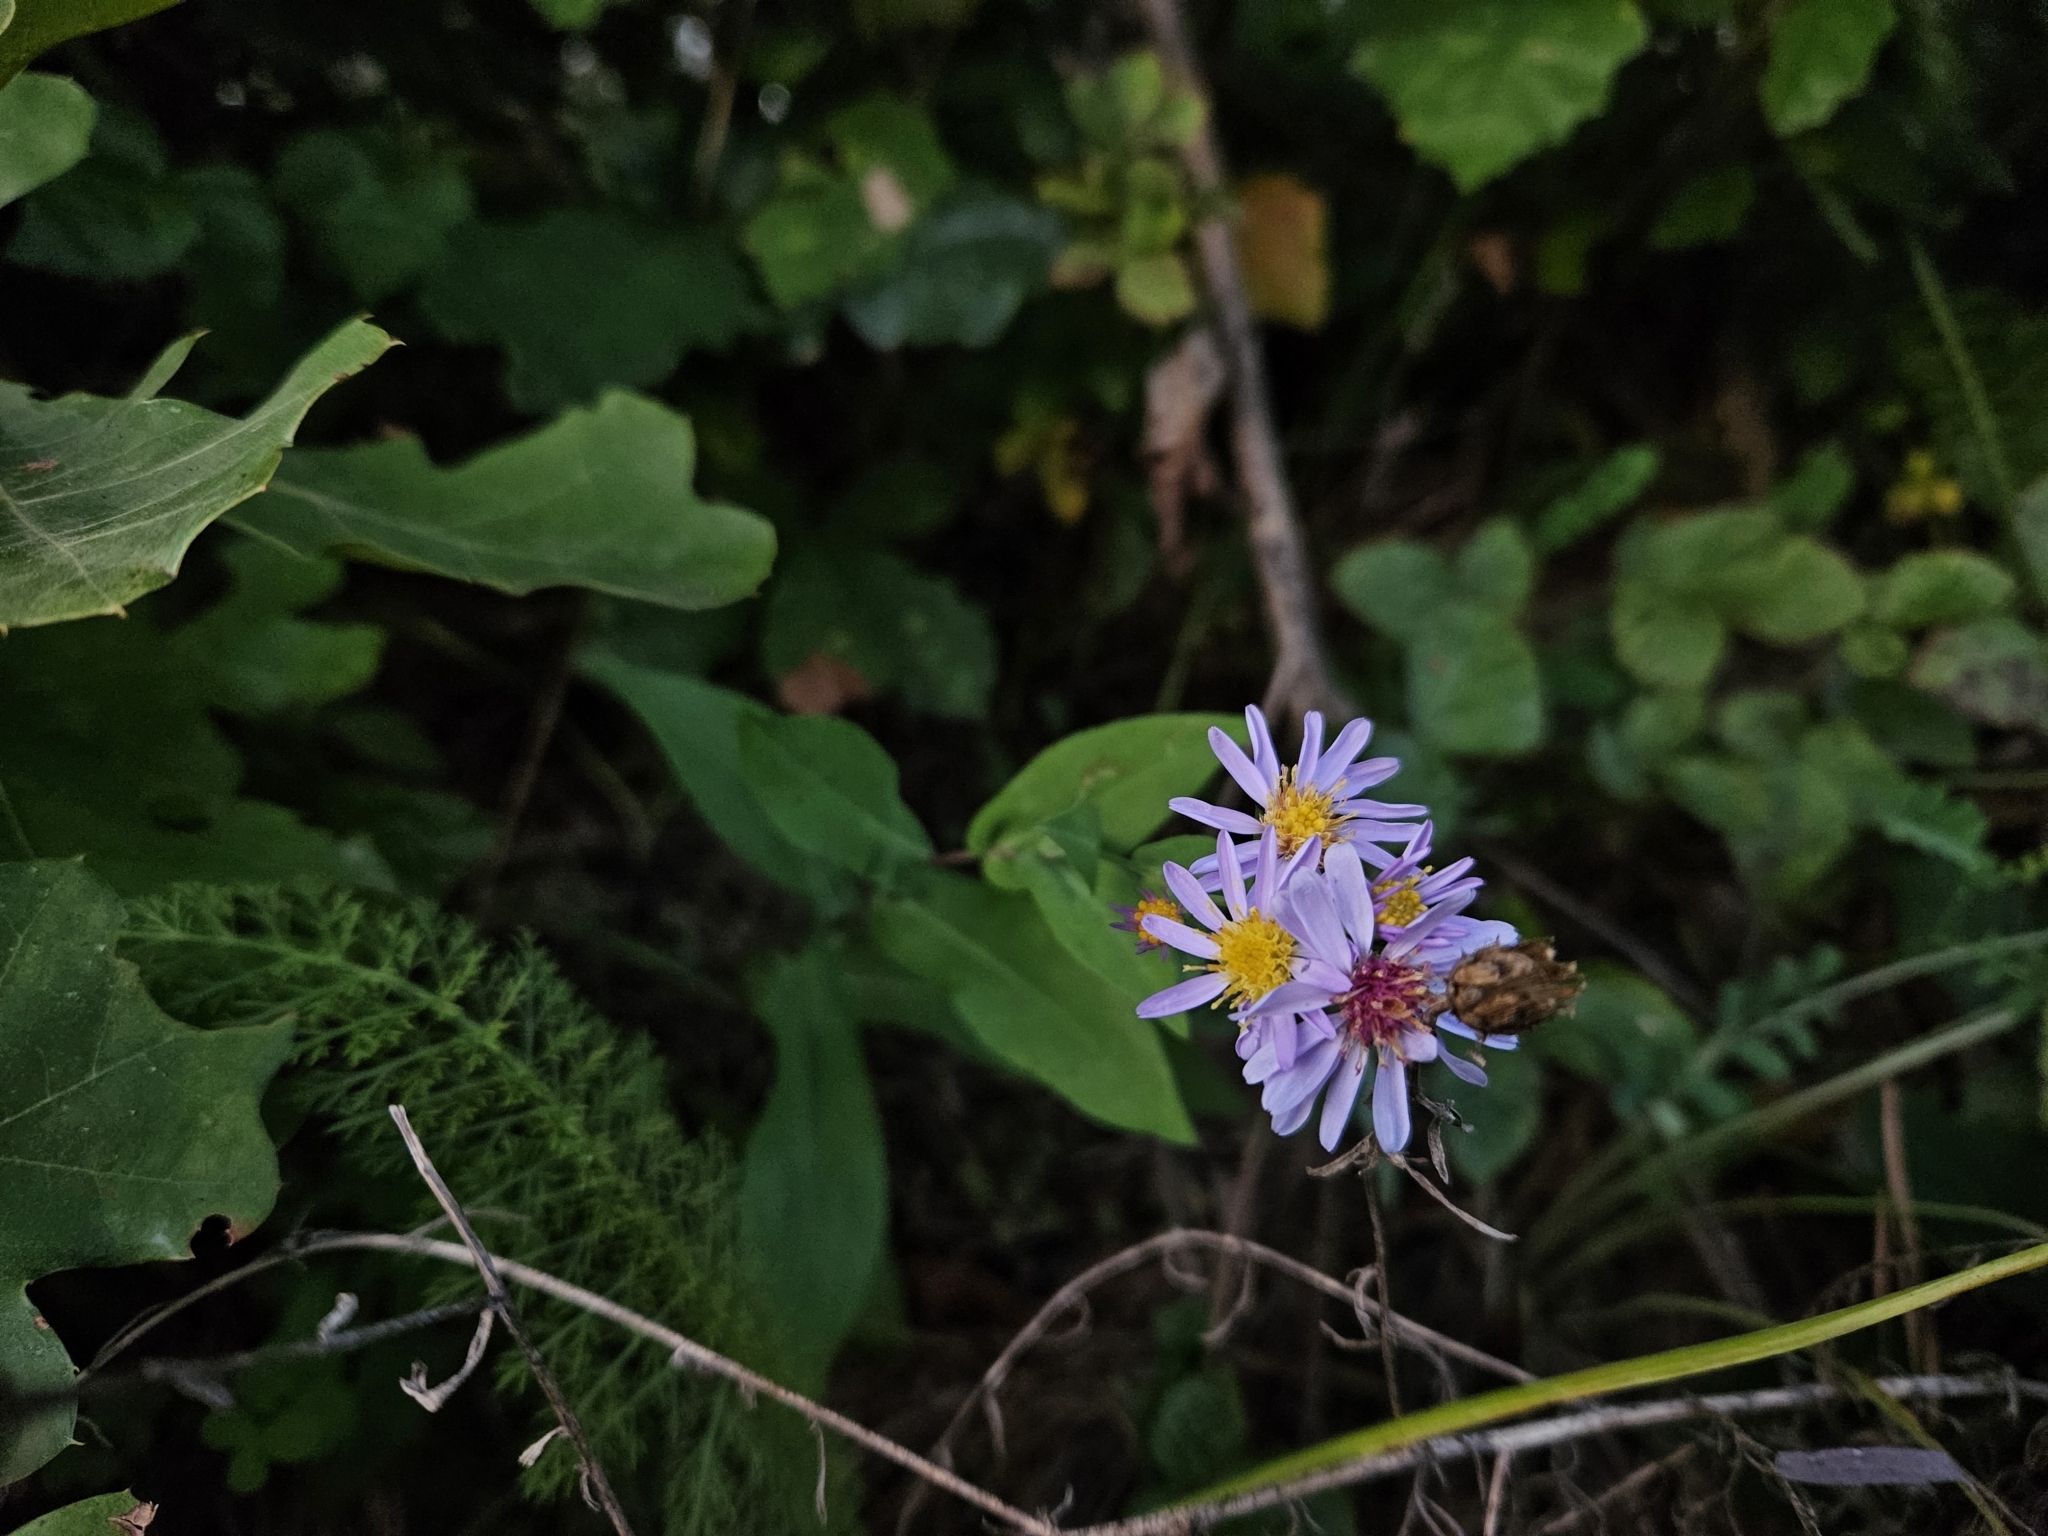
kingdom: Plantae
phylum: Tracheophyta
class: Magnoliopsida
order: Asterales
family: Asteraceae
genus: Symphyotrichum
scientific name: Symphyotrichum laeve
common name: Glaucous aster
